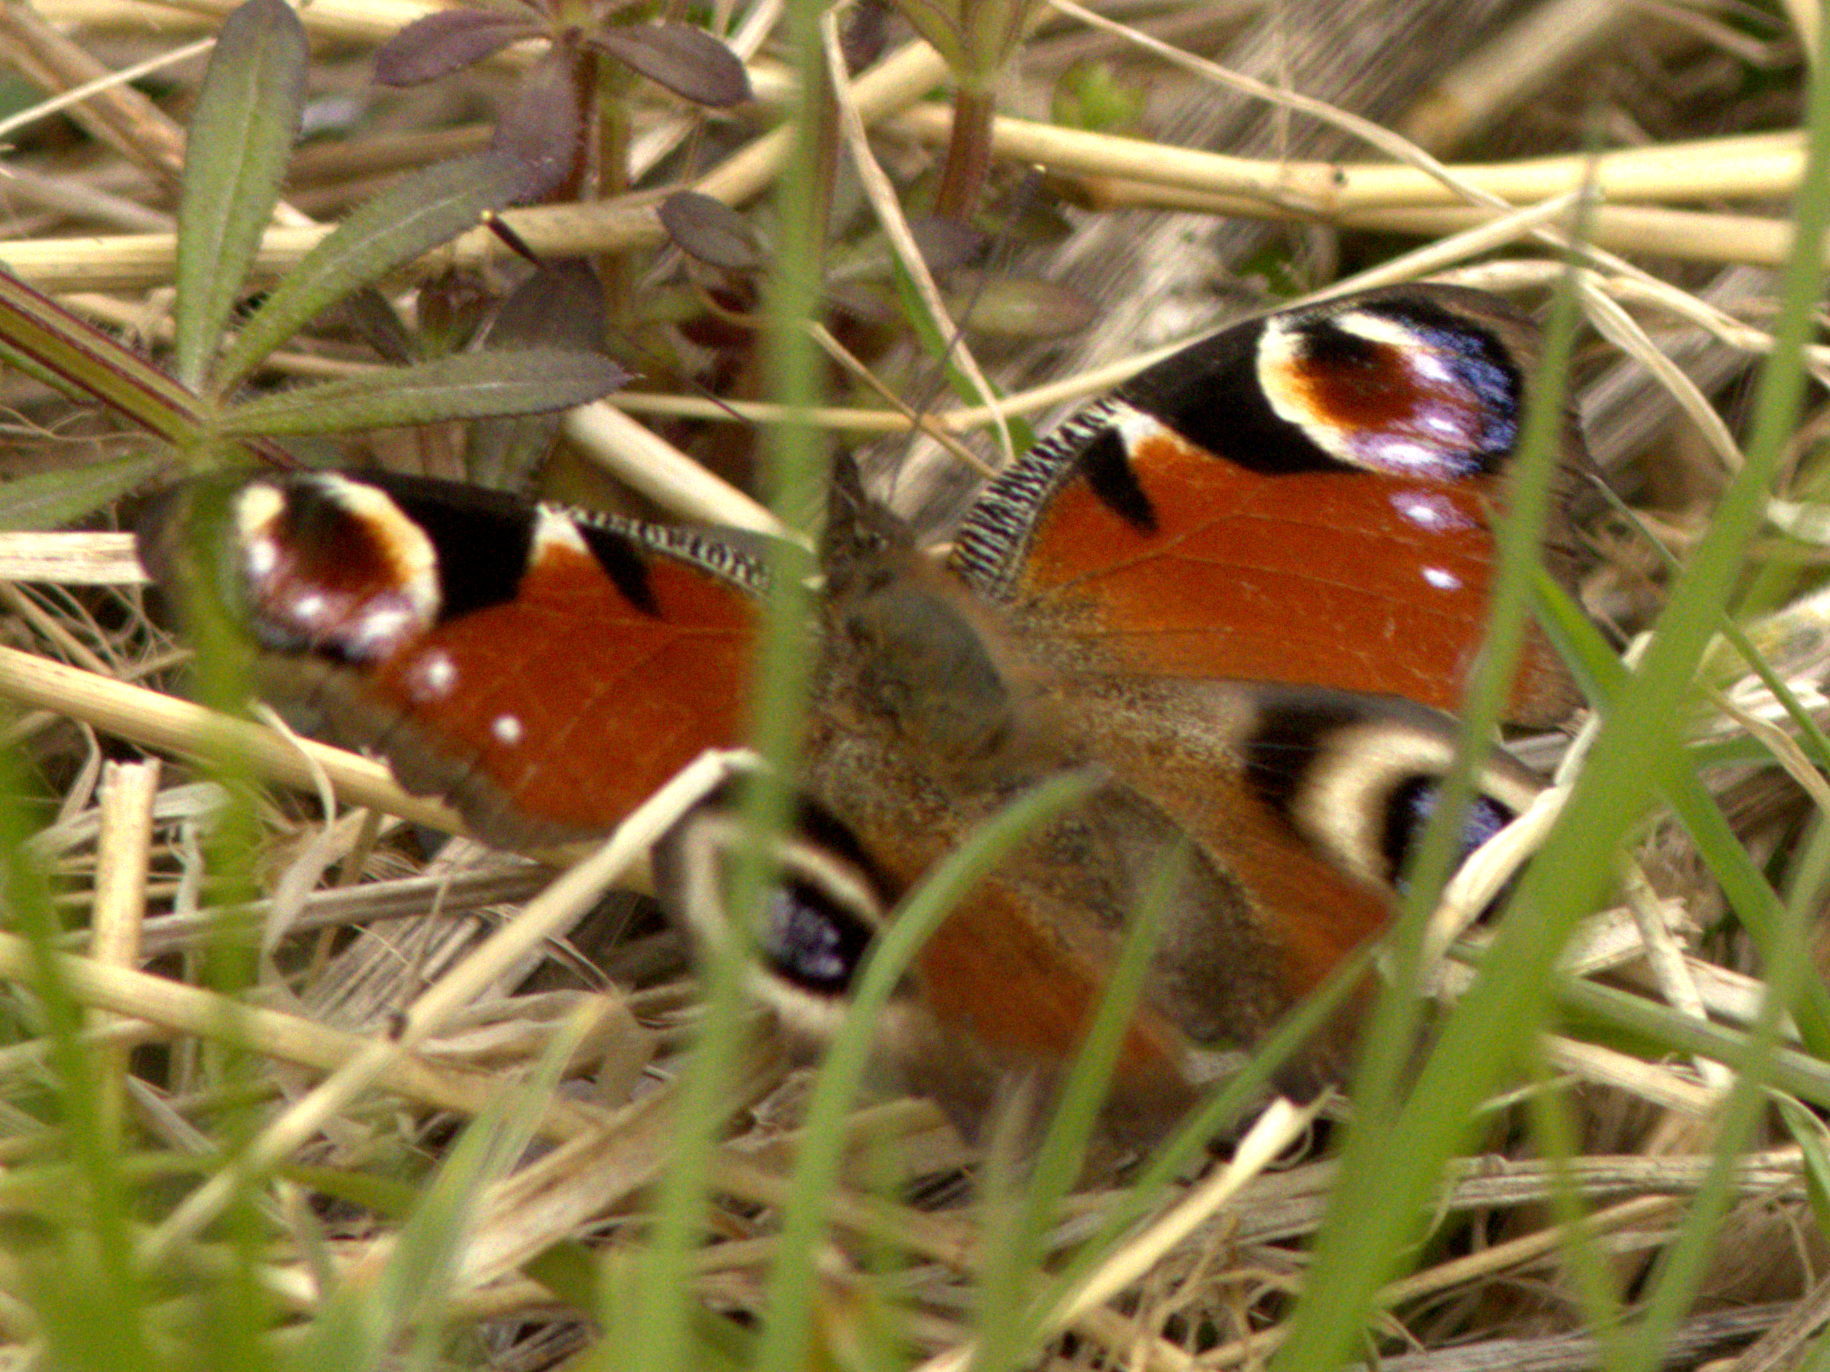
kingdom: Animalia
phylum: Arthropoda
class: Insecta
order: Lepidoptera
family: Nymphalidae
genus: Aglais
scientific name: Aglais io
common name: Peacock
